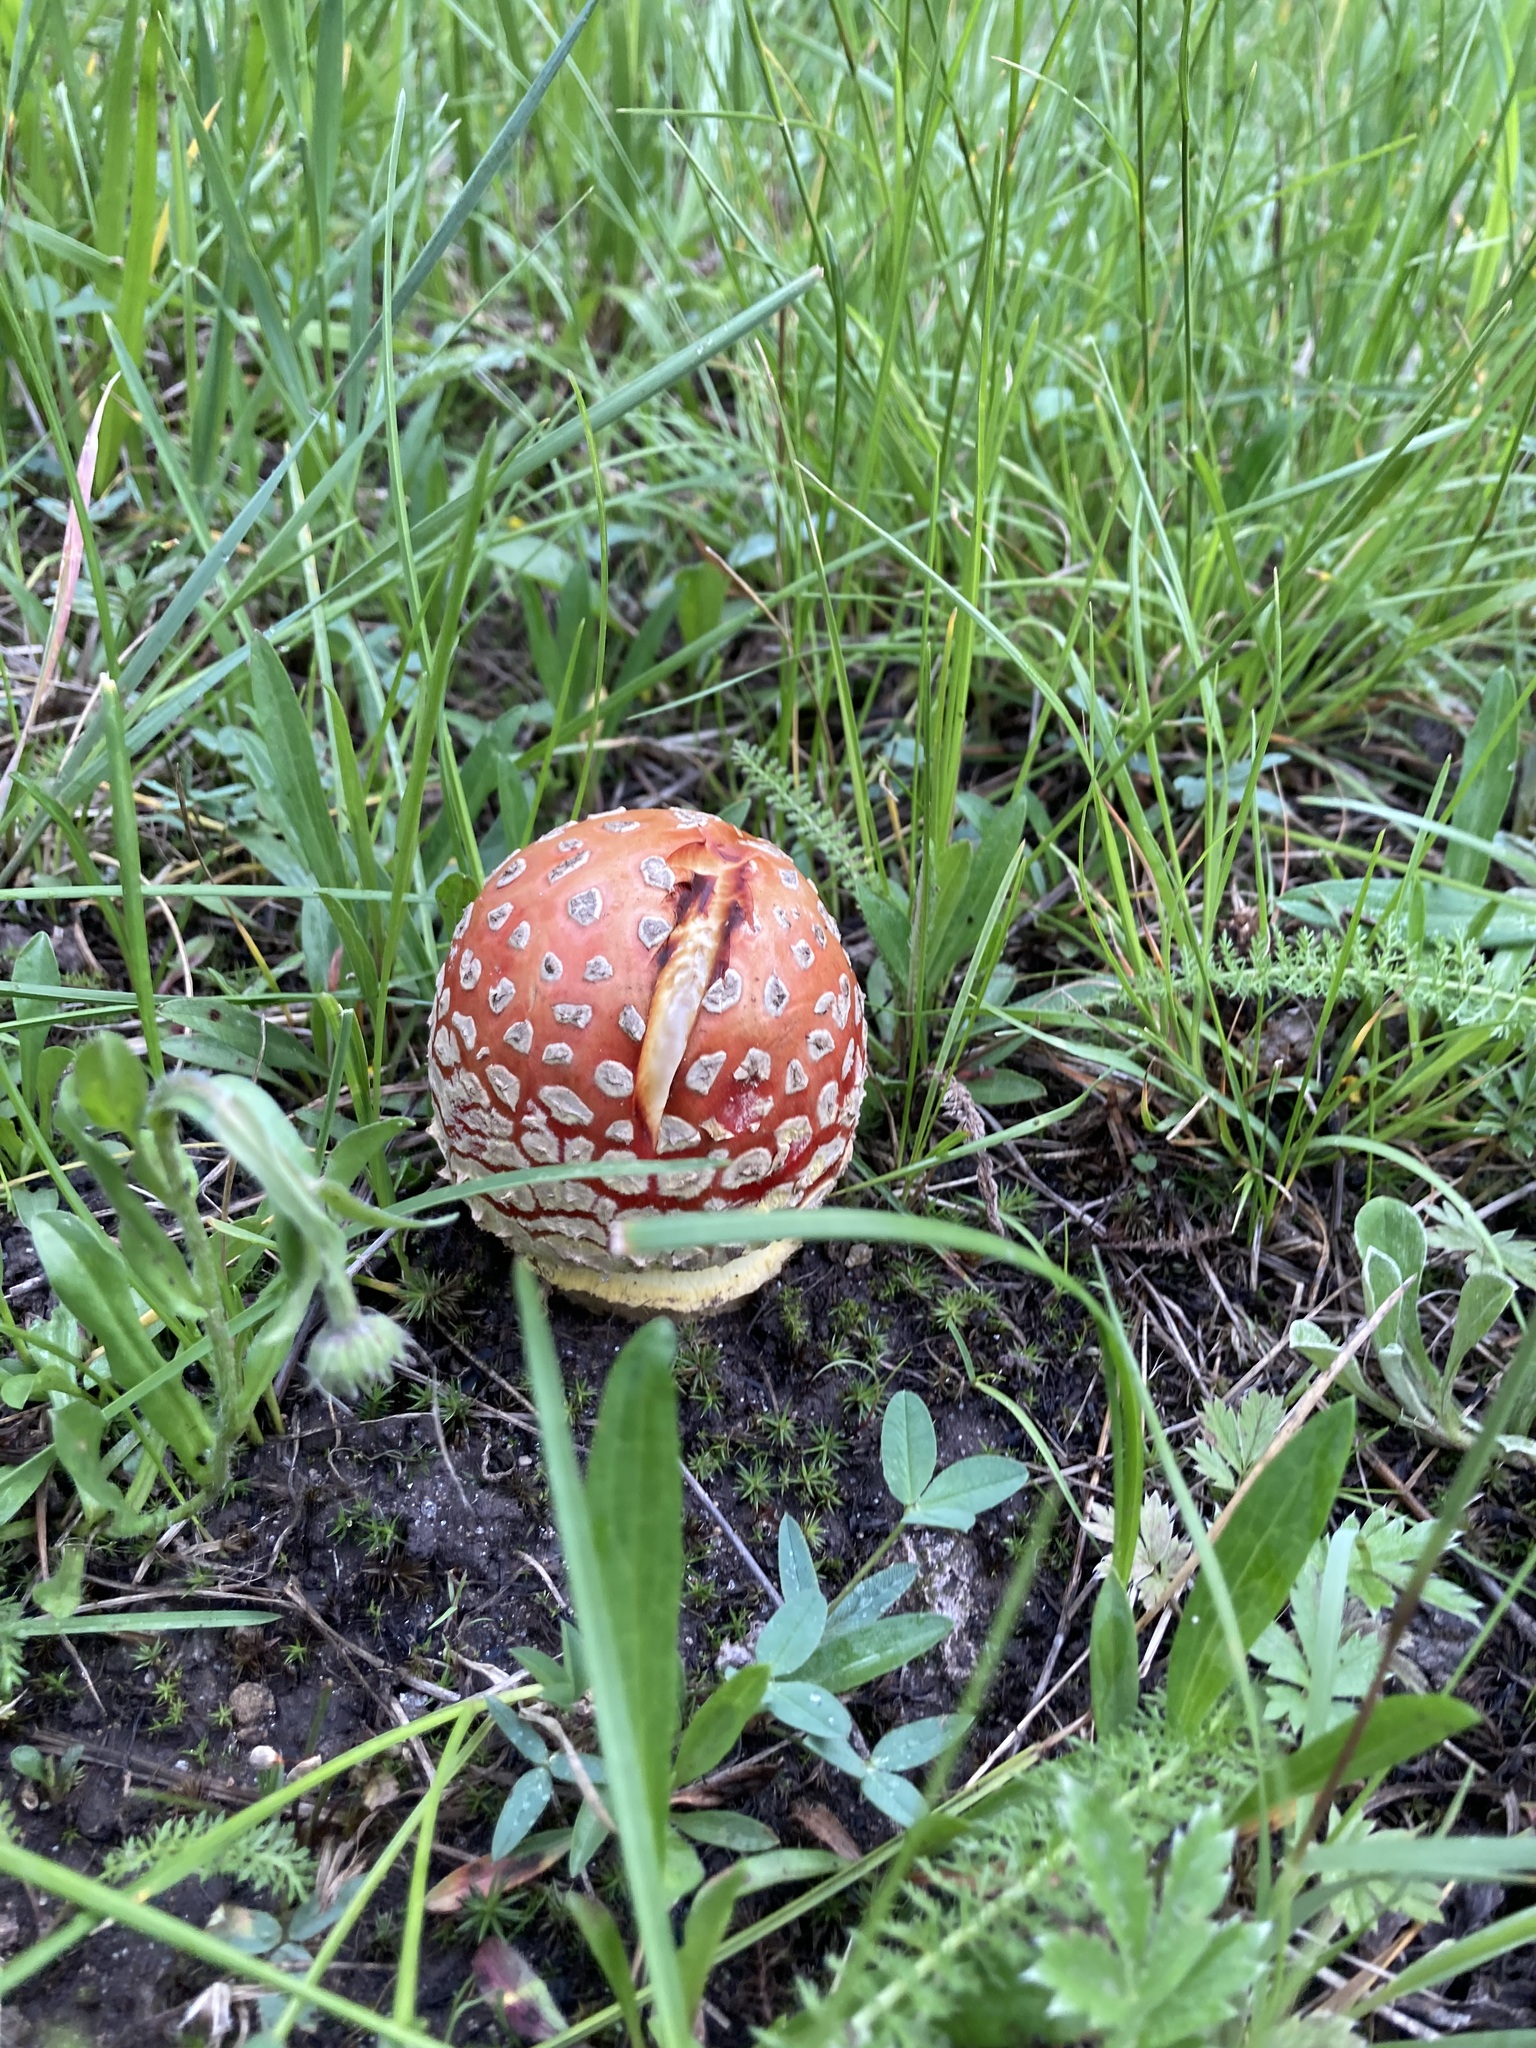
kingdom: Fungi
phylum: Basidiomycota
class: Agaricomycetes
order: Agaricales
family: Amanitaceae
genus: Amanita
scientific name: Amanita muscaria
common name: Fly agaric
